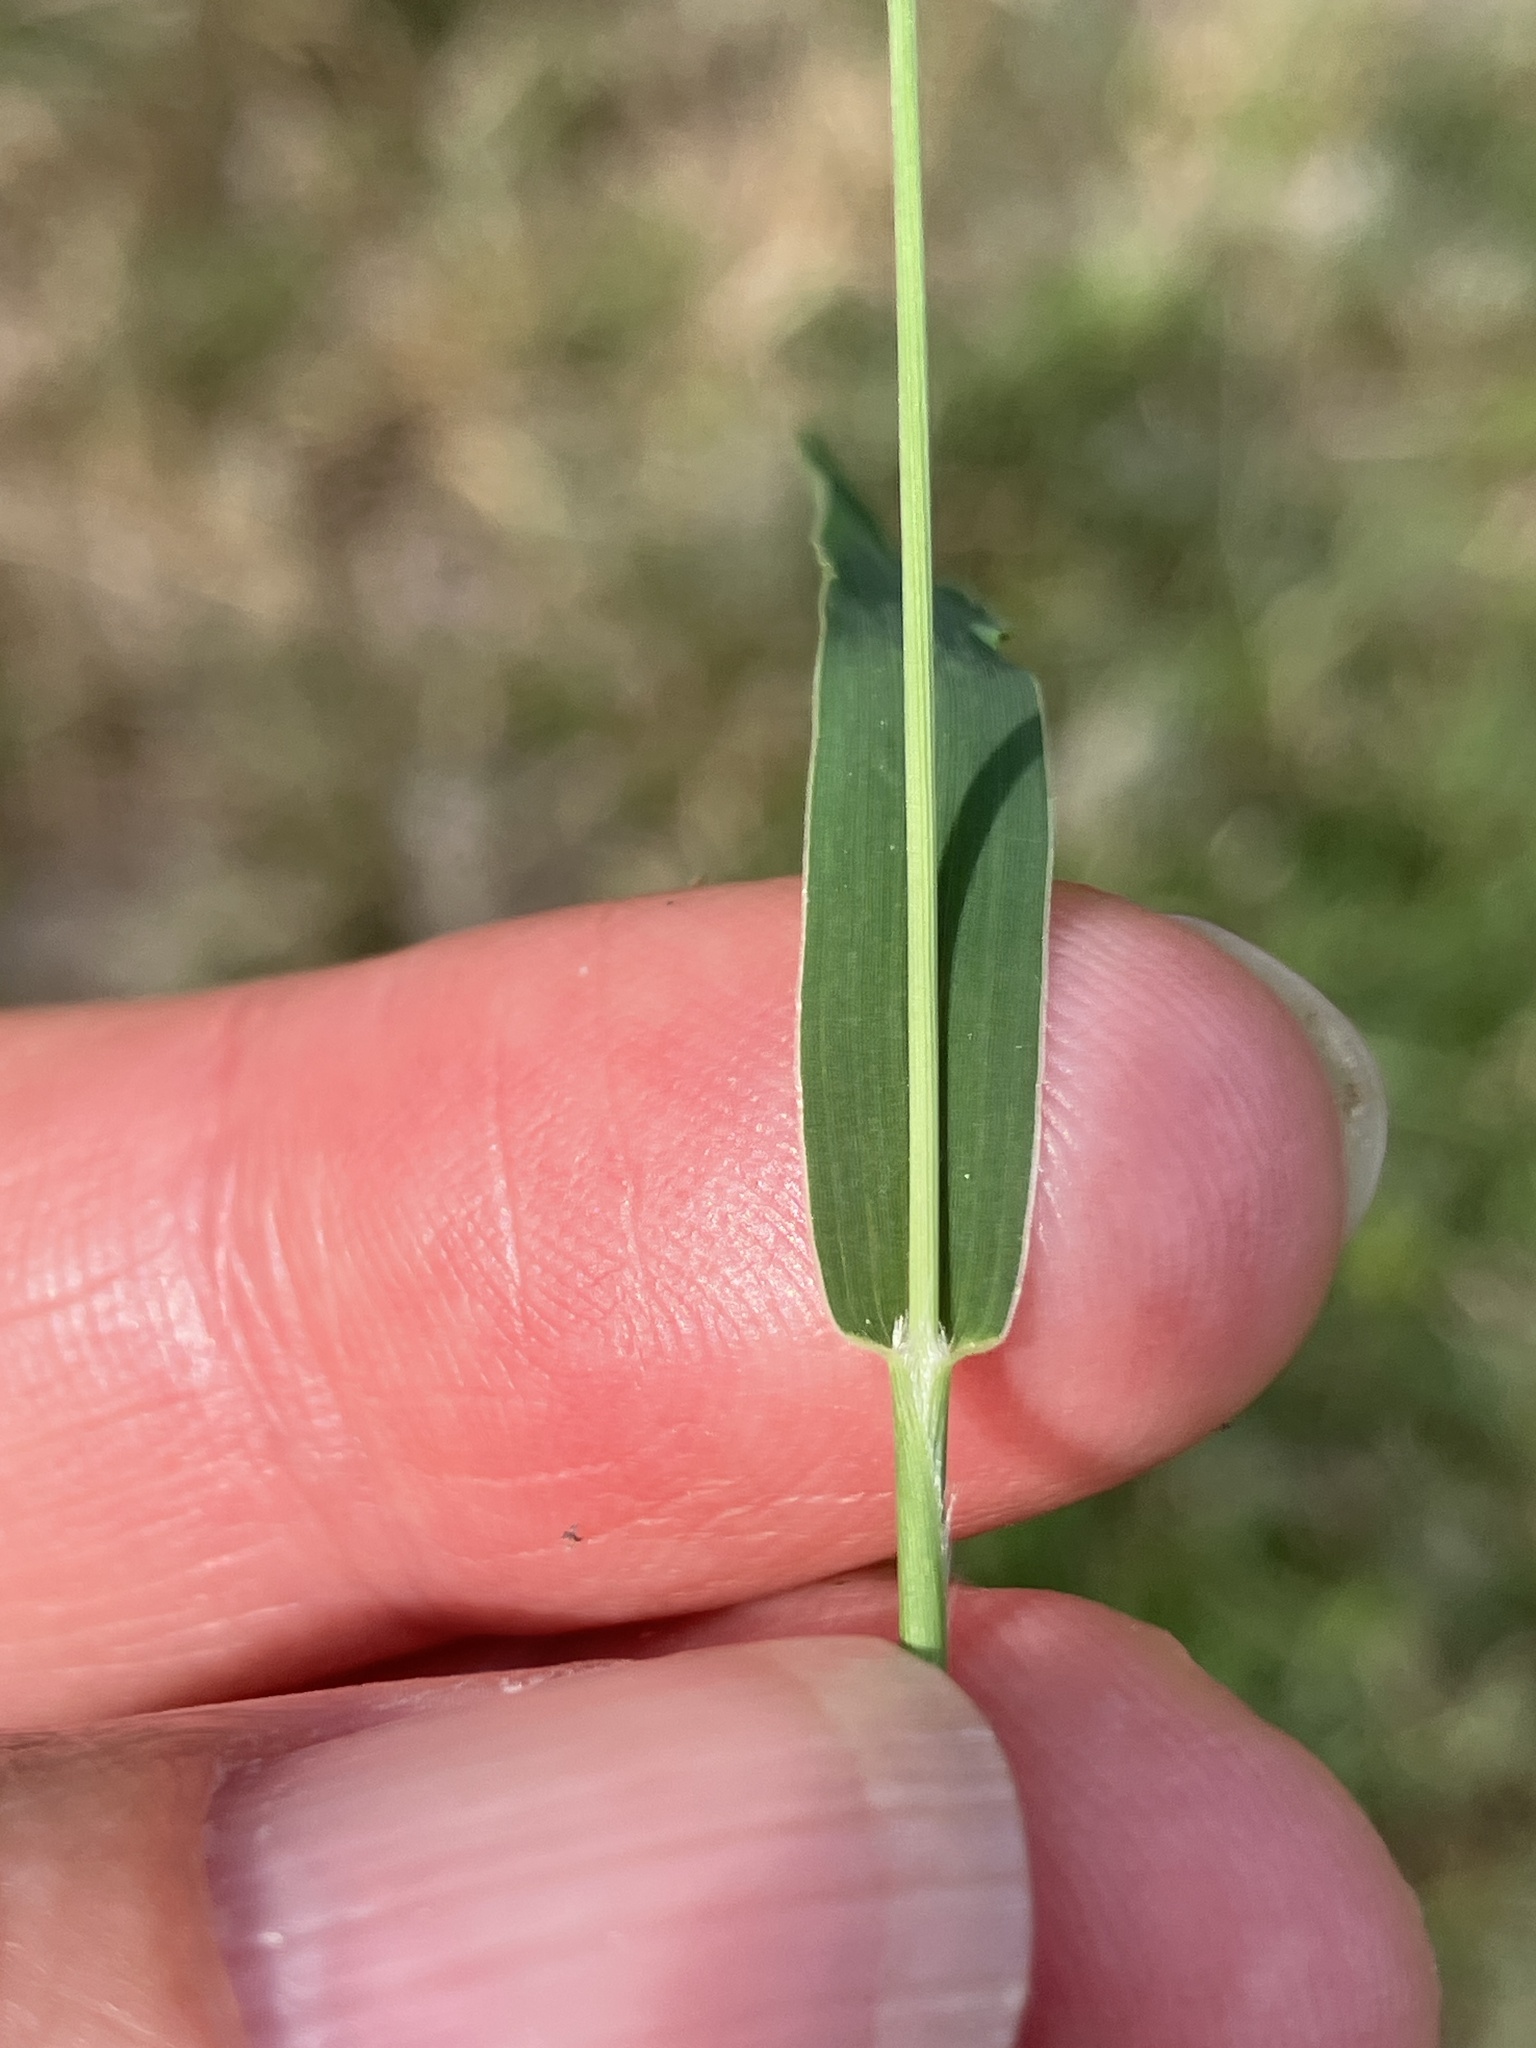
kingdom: Plantae
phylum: Tracheophyta
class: Liliopsida
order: Poales
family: Poaceae
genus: Setaria
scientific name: Setaria viridis
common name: Green bristlegrass
